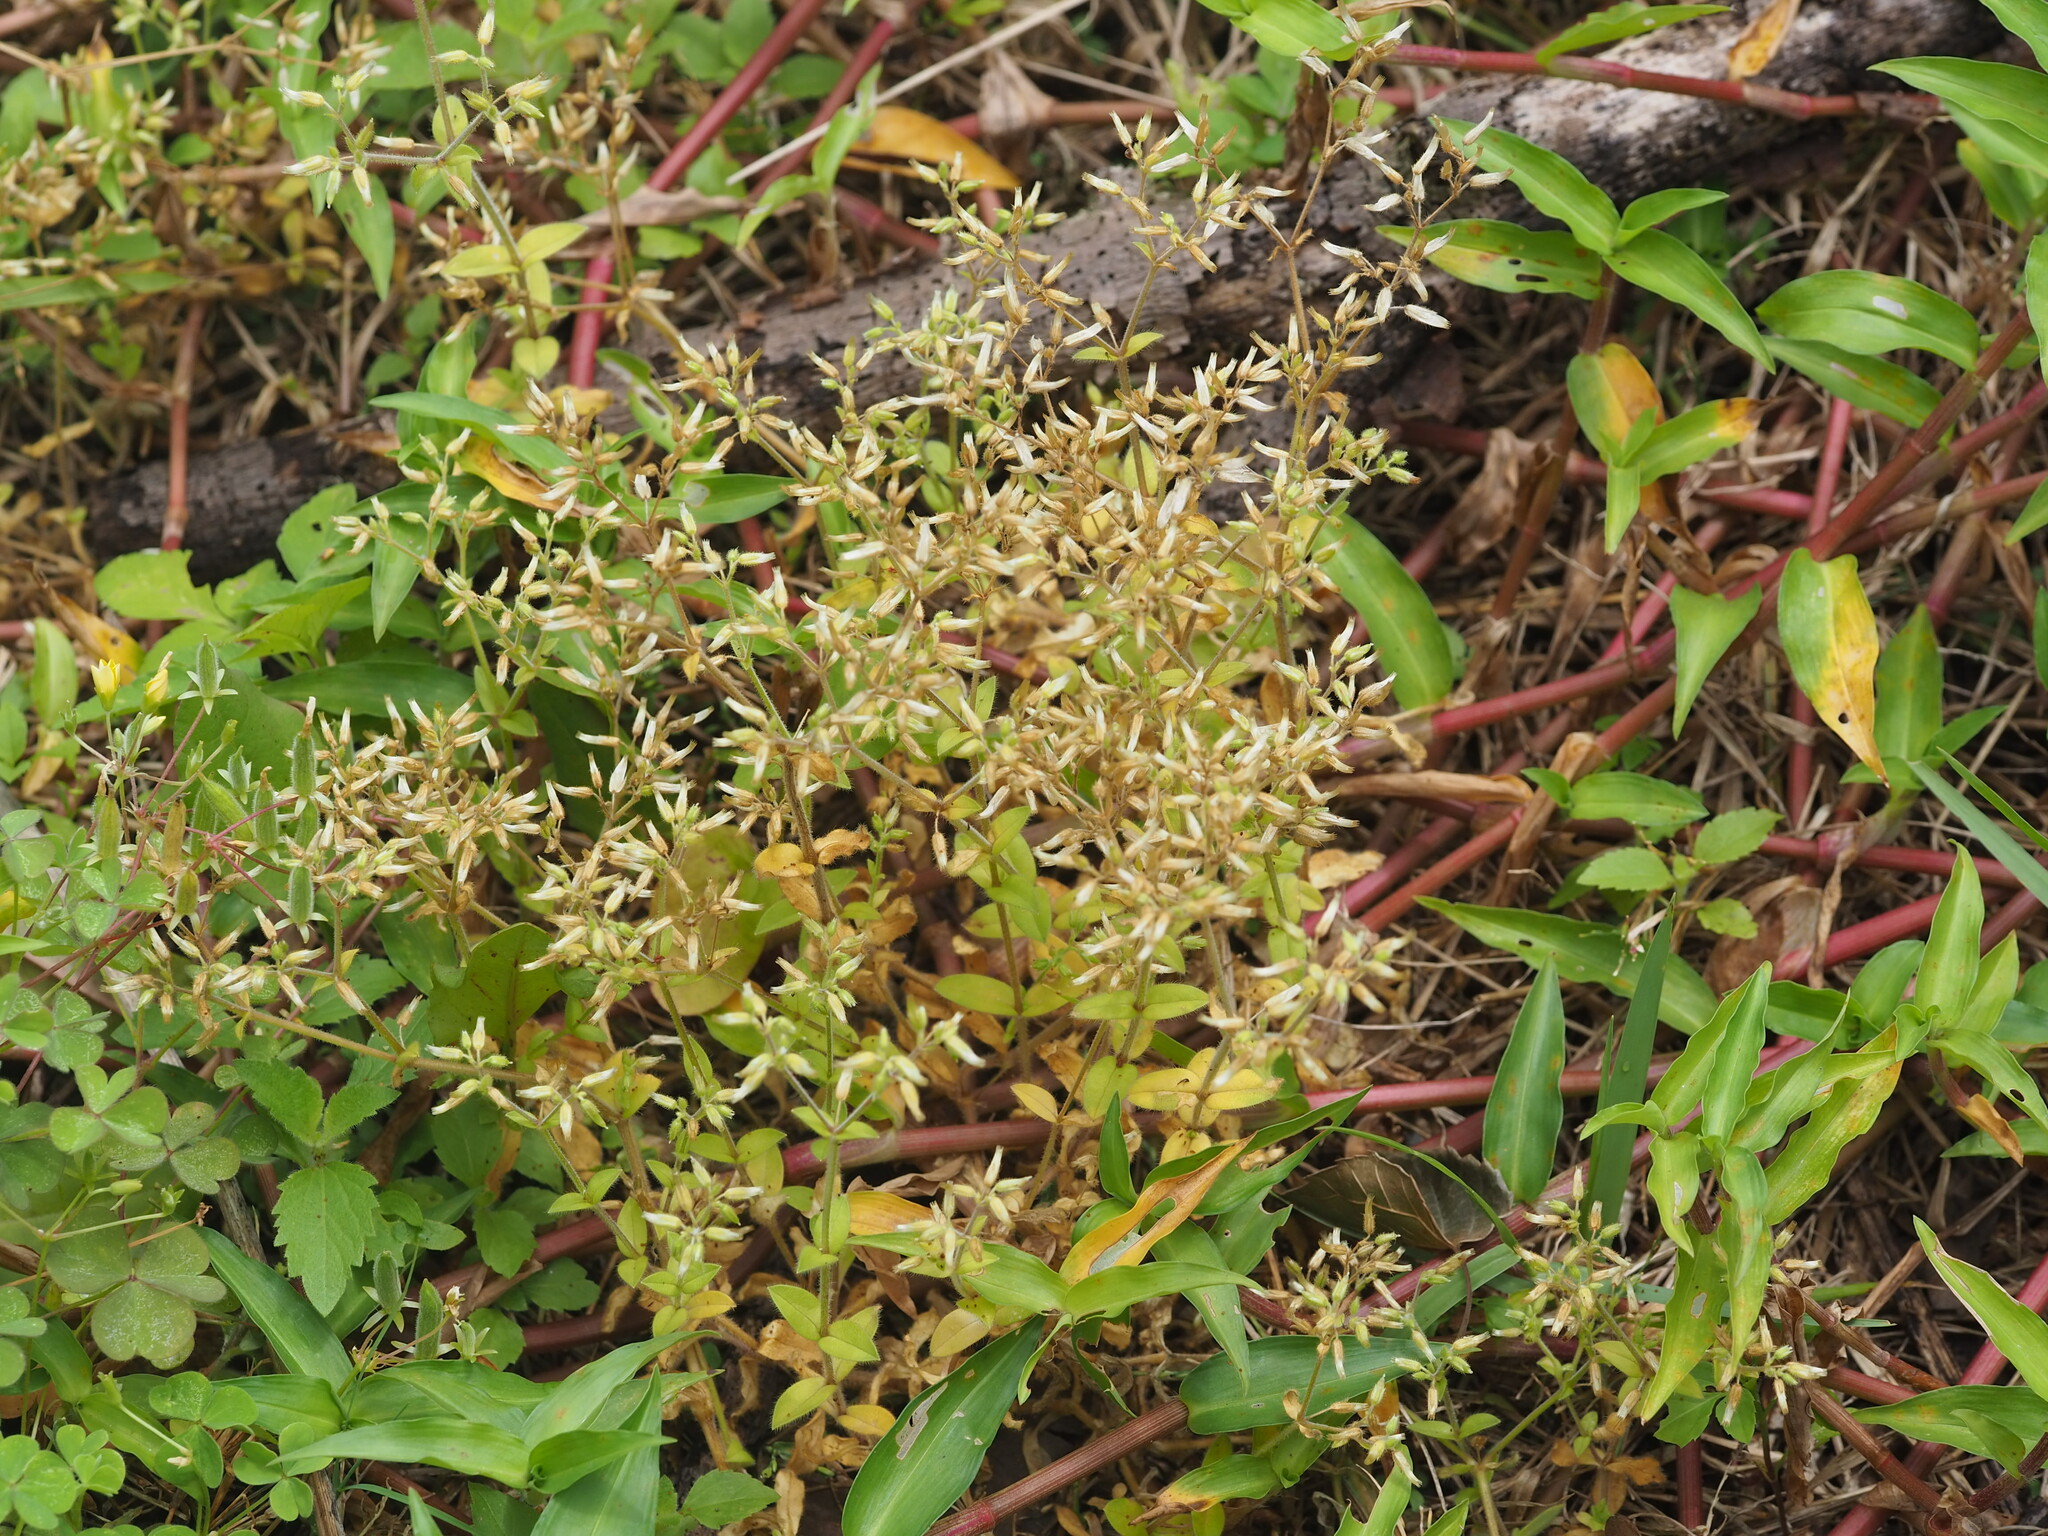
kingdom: Plantae
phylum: Tracheophyta
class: Magnoliopsida
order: Caryophyllales
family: Caryophyllaceae
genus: Cerastium
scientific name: Cerastium glomeratum
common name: Sticky chickweed
